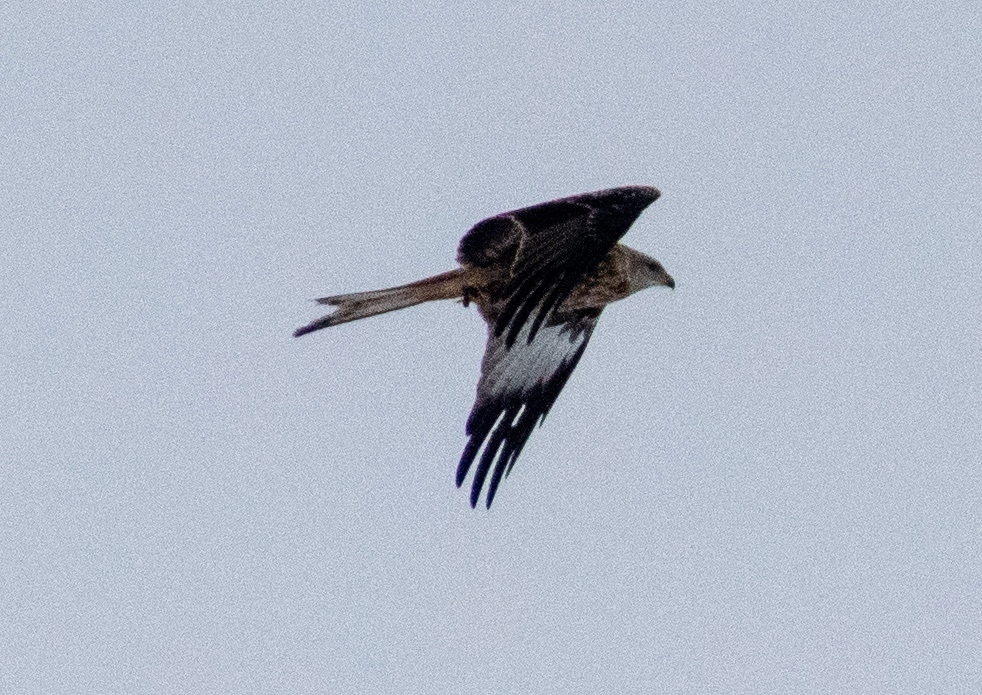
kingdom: Animalia
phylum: Chordata
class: Aves
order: Accipitriformes
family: Accipitridae
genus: Milvus
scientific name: Milvus milvus
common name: Red kite
